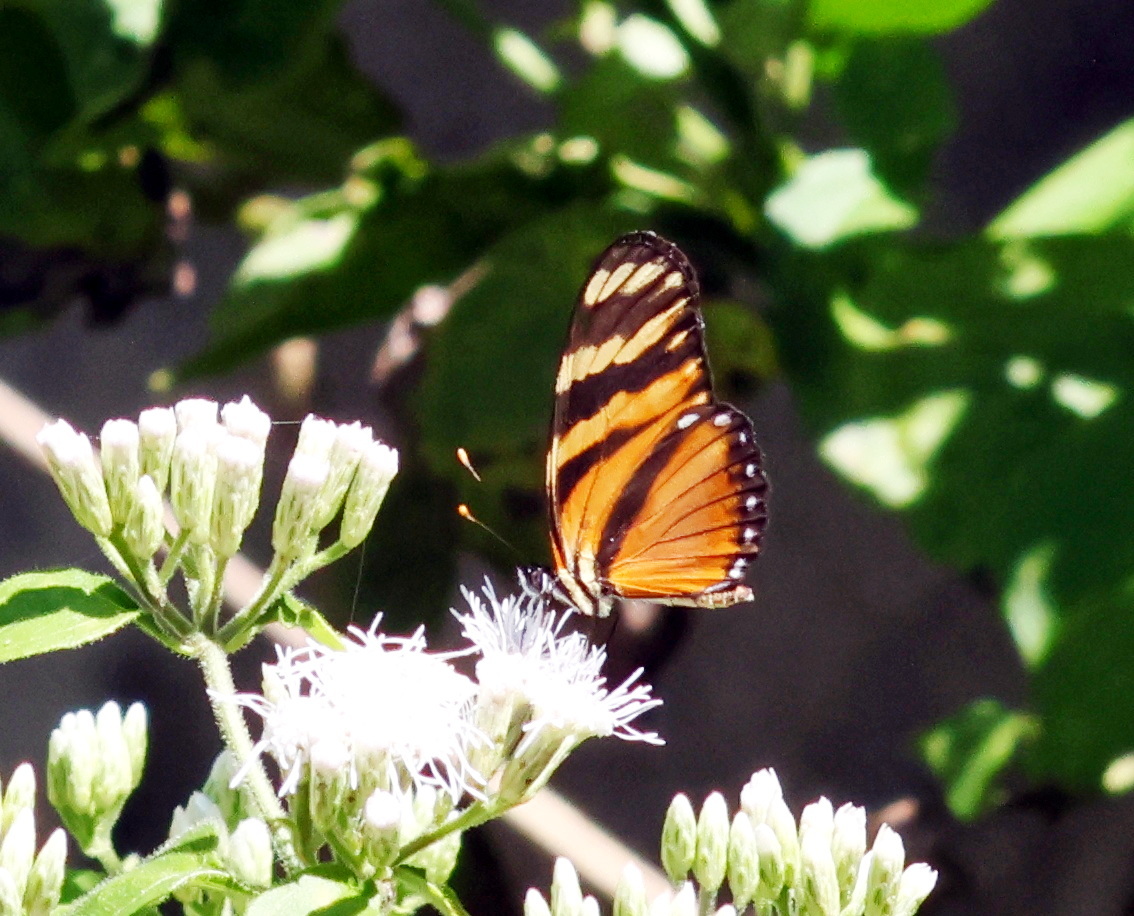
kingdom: Animalia
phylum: Arthropoda
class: Insecta
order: Lepidoptera
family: Nymphalidae
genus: Eresia
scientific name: Eresia ithomioides
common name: Variable crescent
